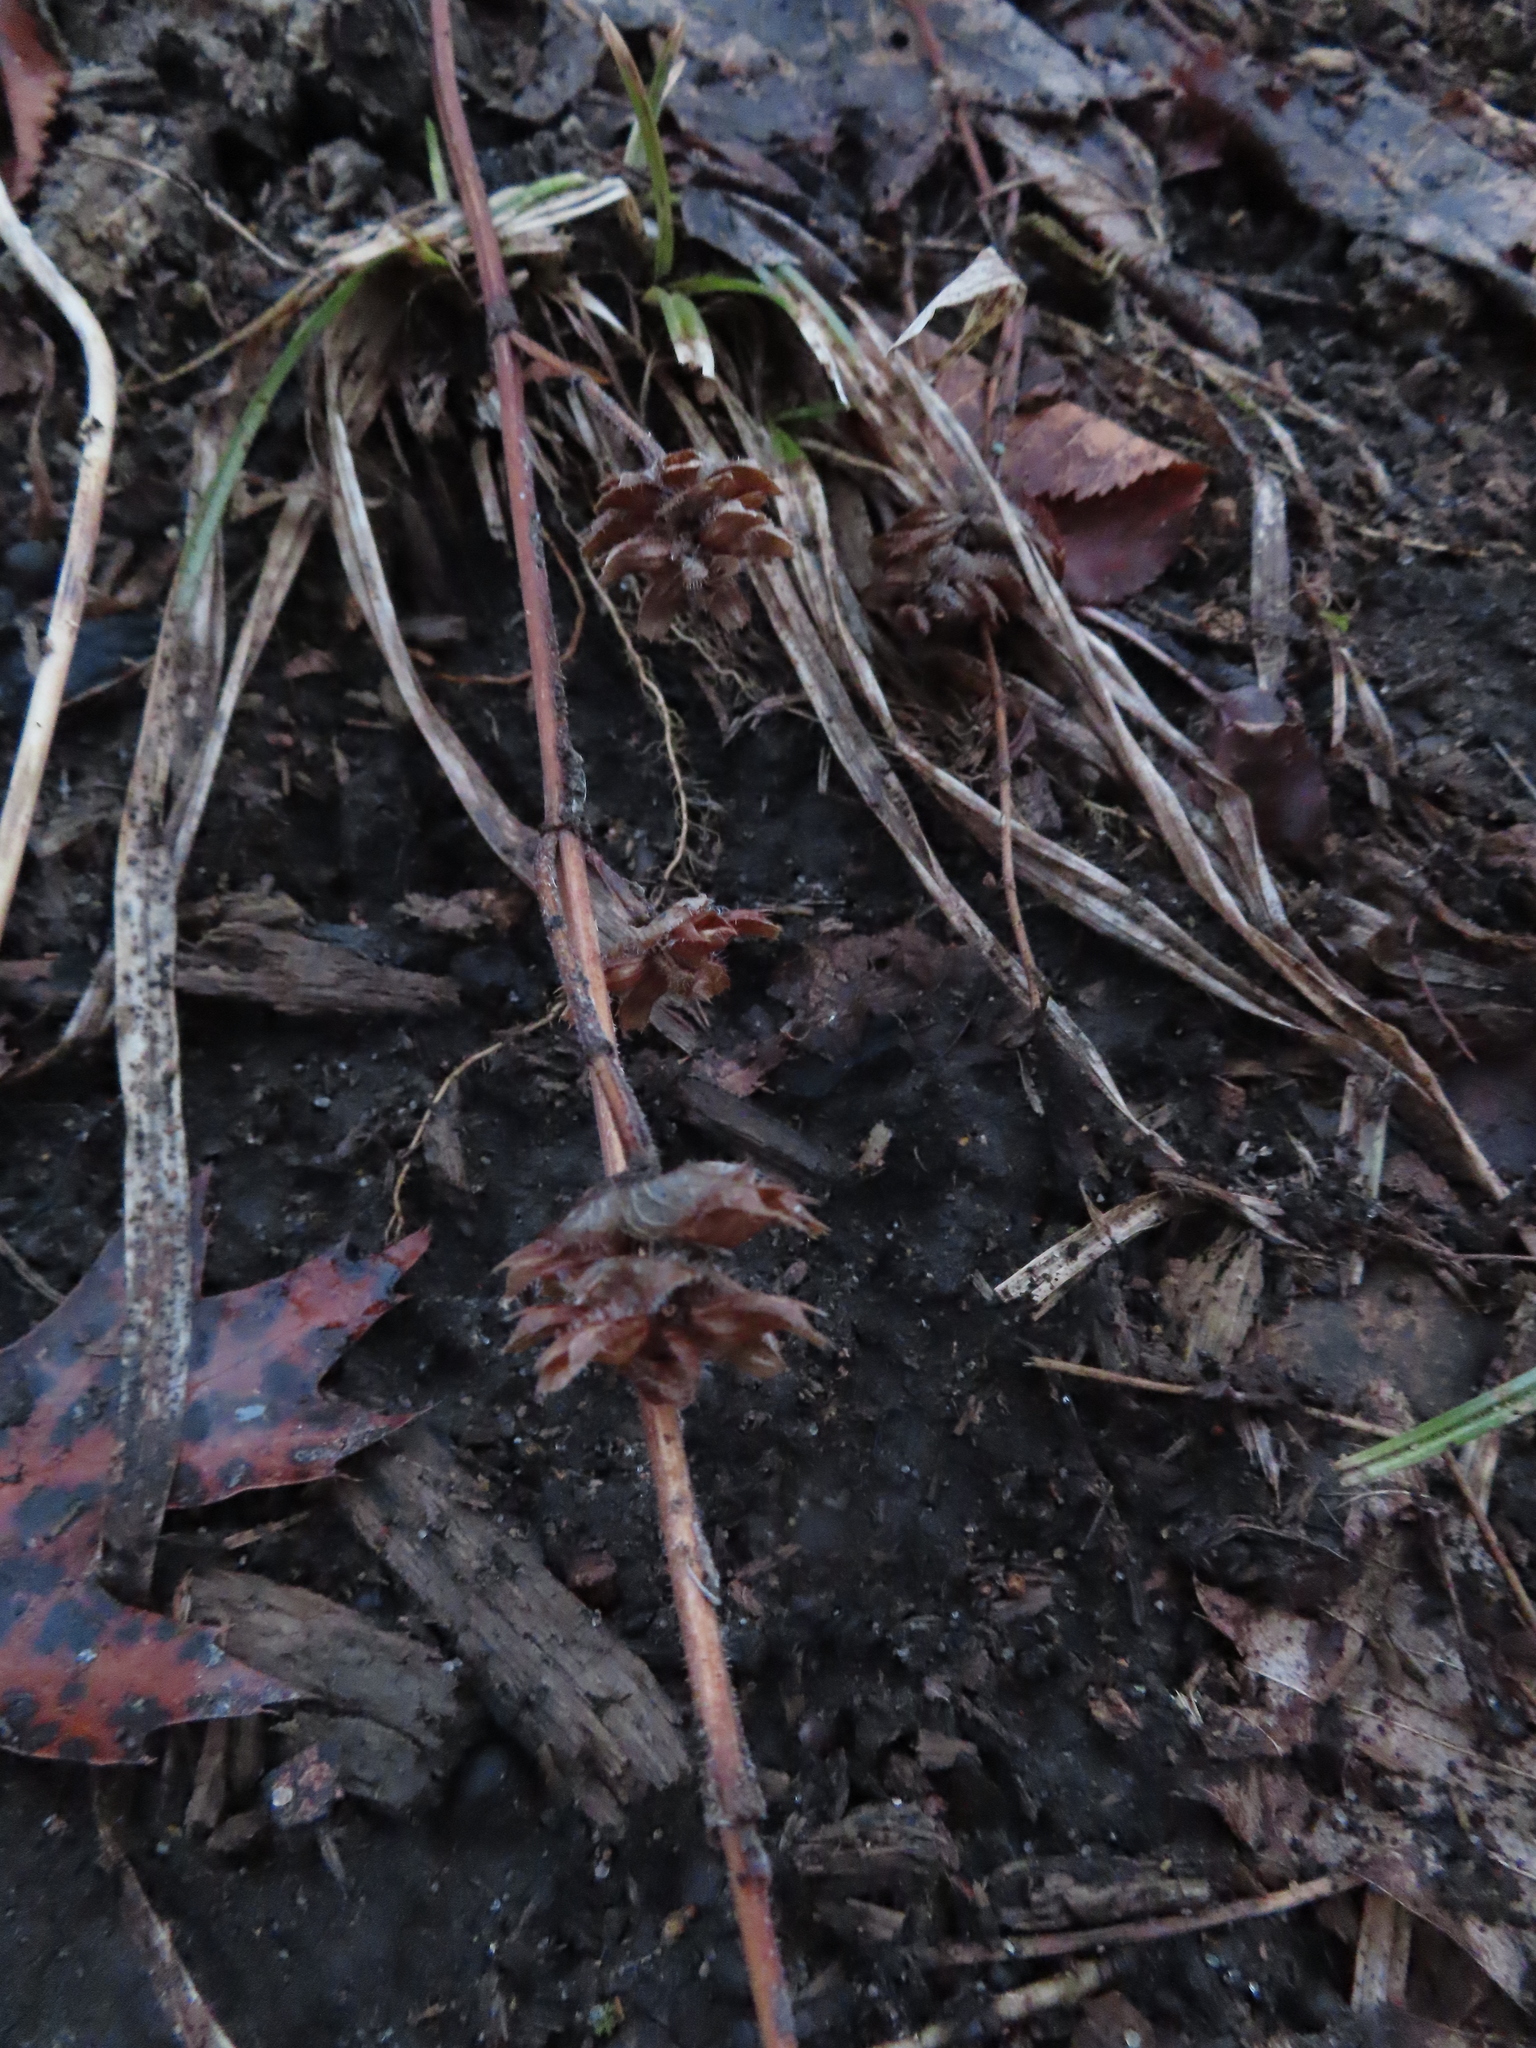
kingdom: Plantae
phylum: Tracheophyta
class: Magnoliopsida
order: Lamiales
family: Lamiaceae
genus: Prunella
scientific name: Prunella vulgaris
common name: Heal-all
